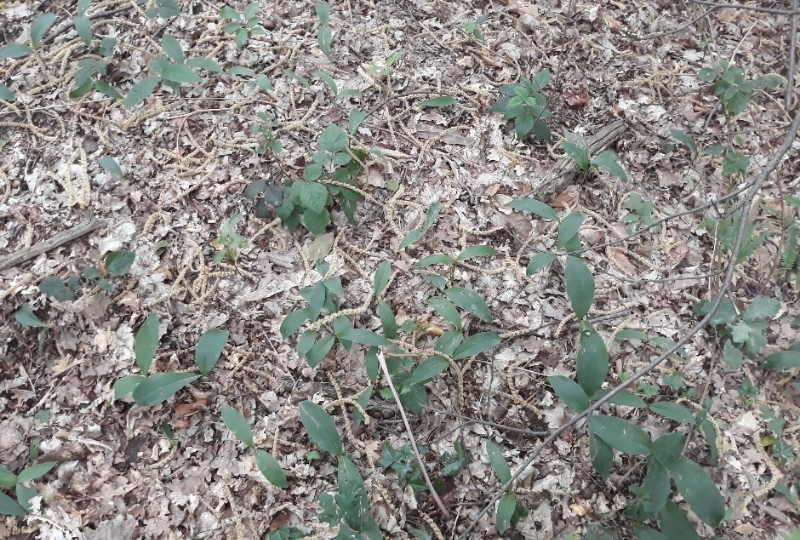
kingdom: Plantae
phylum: Tracheophyta
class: Liliopsida
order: Asparagales
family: Asparagaceae
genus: Convallaria
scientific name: Convallaria majalis
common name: Lily-of-the-valley
